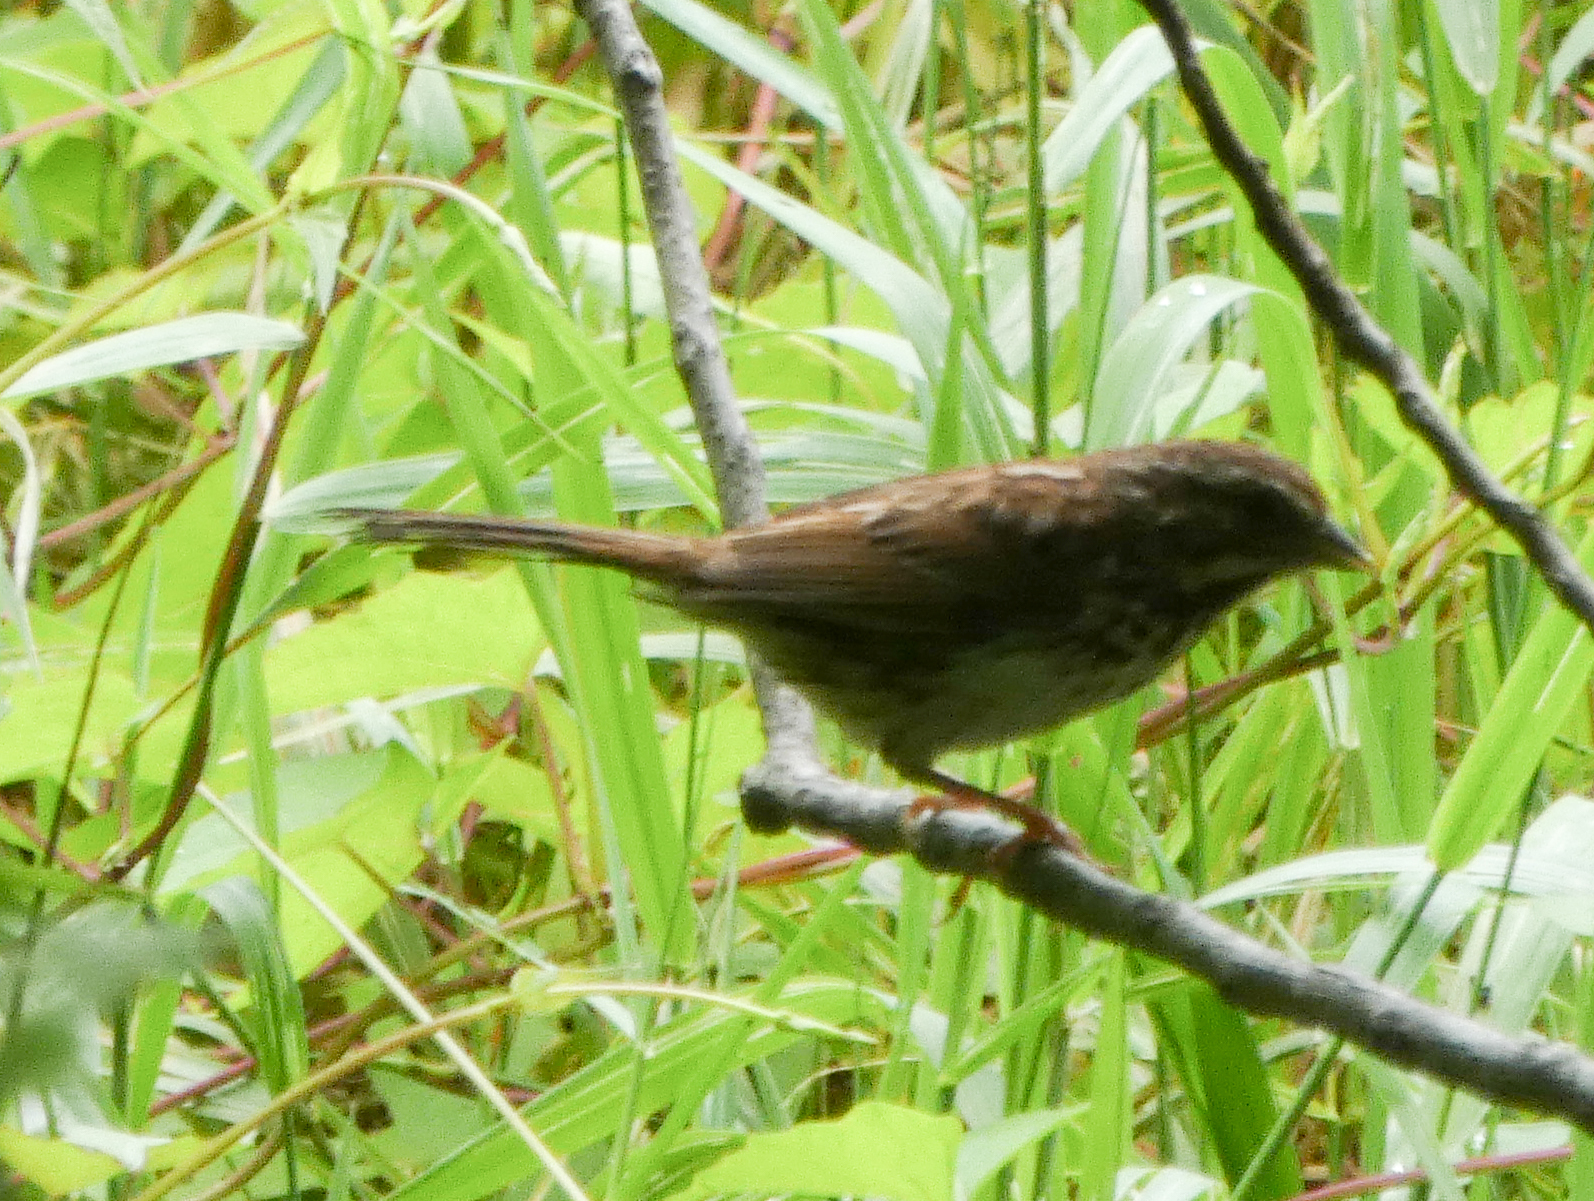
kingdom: Animalia
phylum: Chordata
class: Aves
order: Passeriformes
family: Passerellidae
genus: Melospiza
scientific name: Melospiza melodia
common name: Song sparrow
